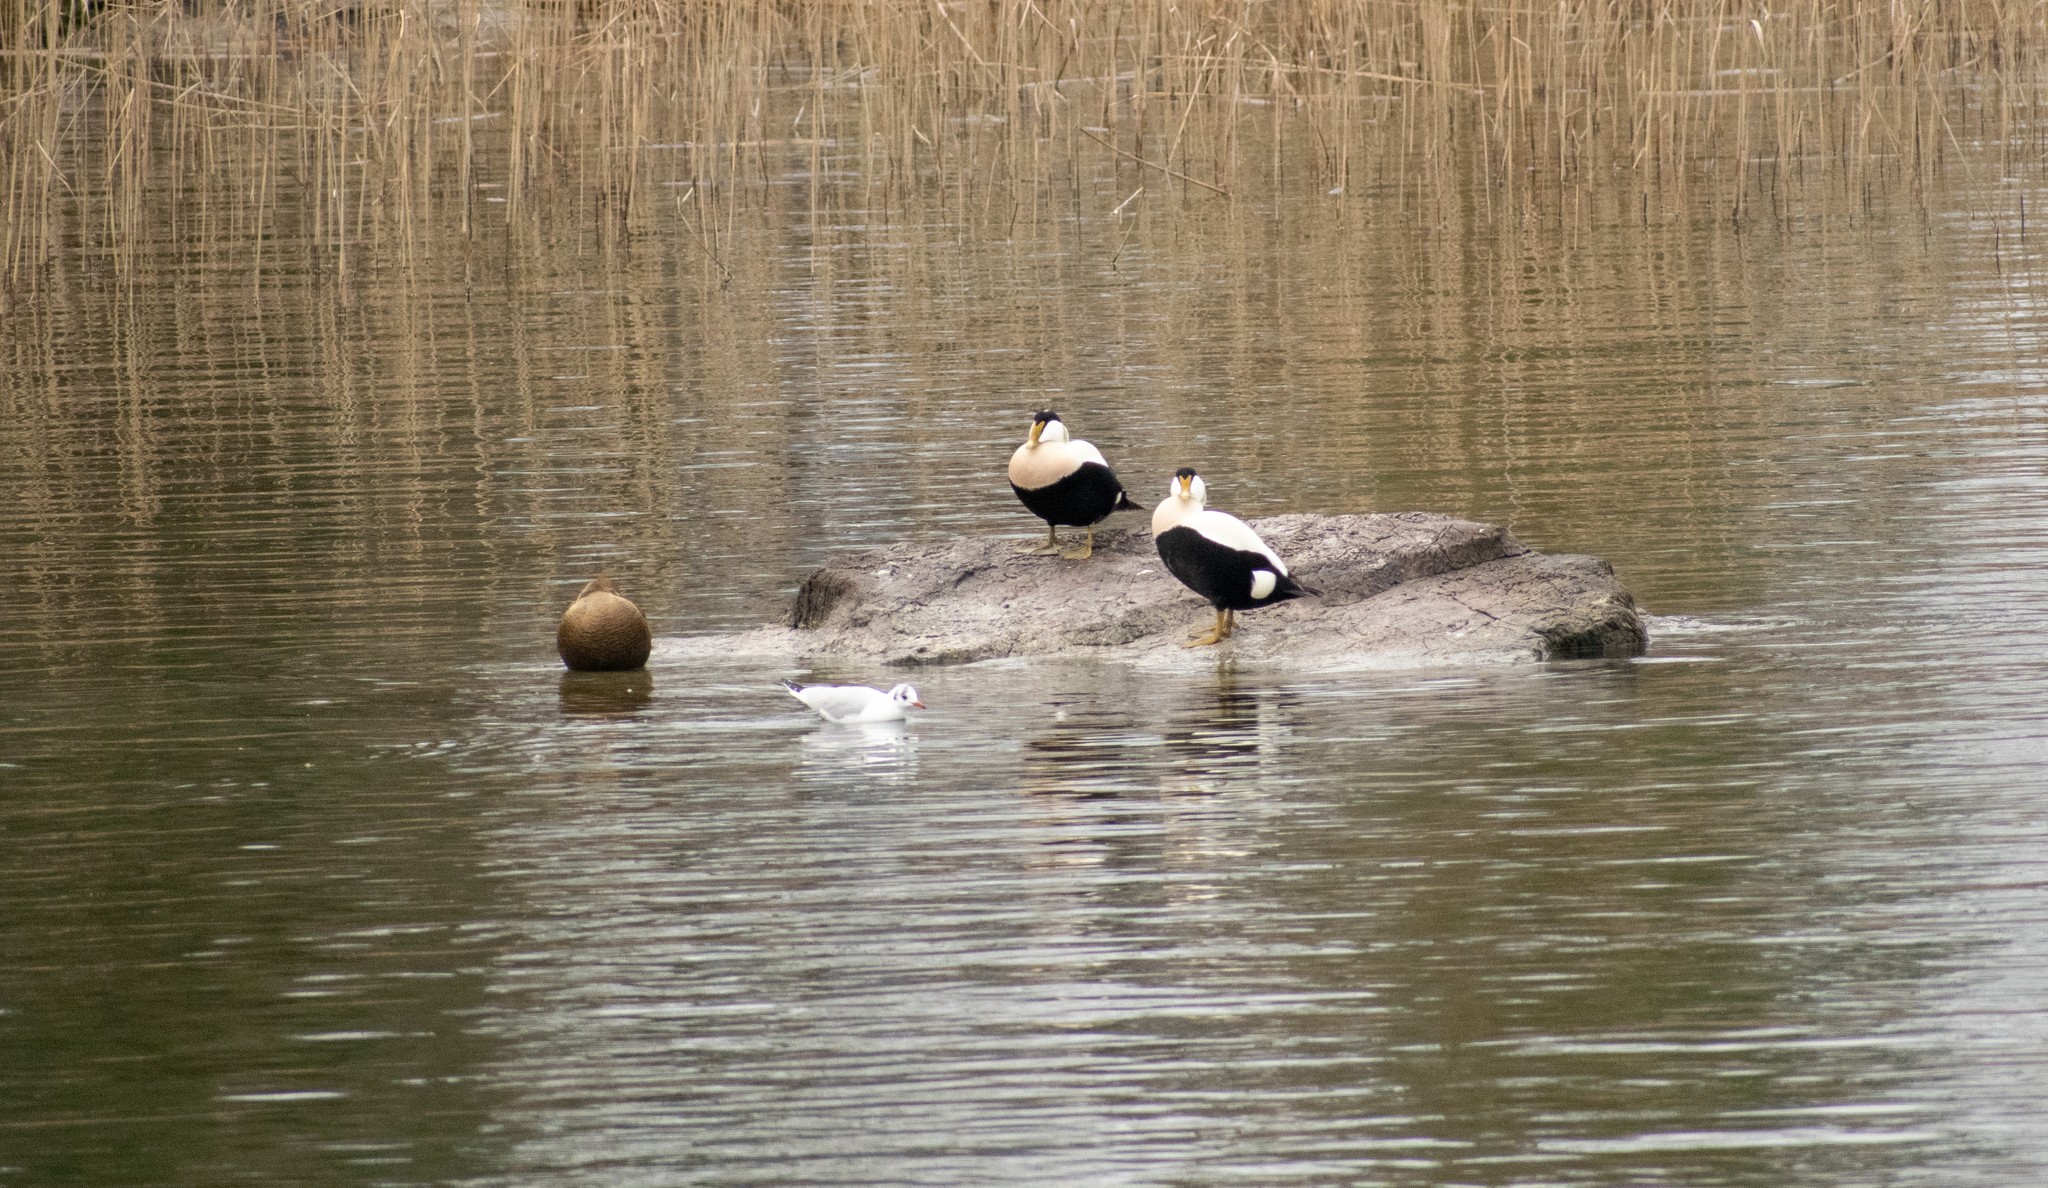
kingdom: Animalia
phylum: Chordata
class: Aves
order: Anseriformes
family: Anatidae
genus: Somateria
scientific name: Somateria mollissima
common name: Common eider
